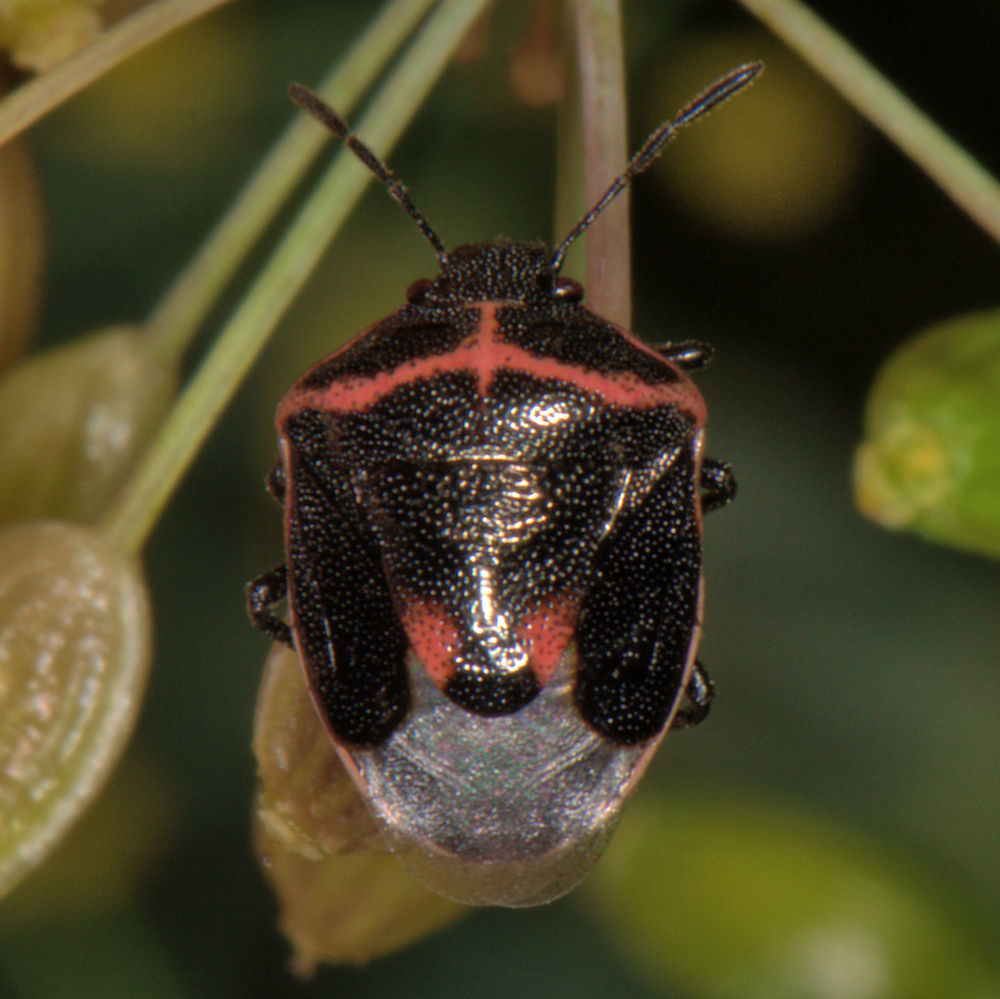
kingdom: Animalia
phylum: Arthropoda
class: Insecta
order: Hemiptera
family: Pentatomidae
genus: Cosmopepla
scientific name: Cosmopepla lintneriana
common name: Twice-stabbed stink bug
